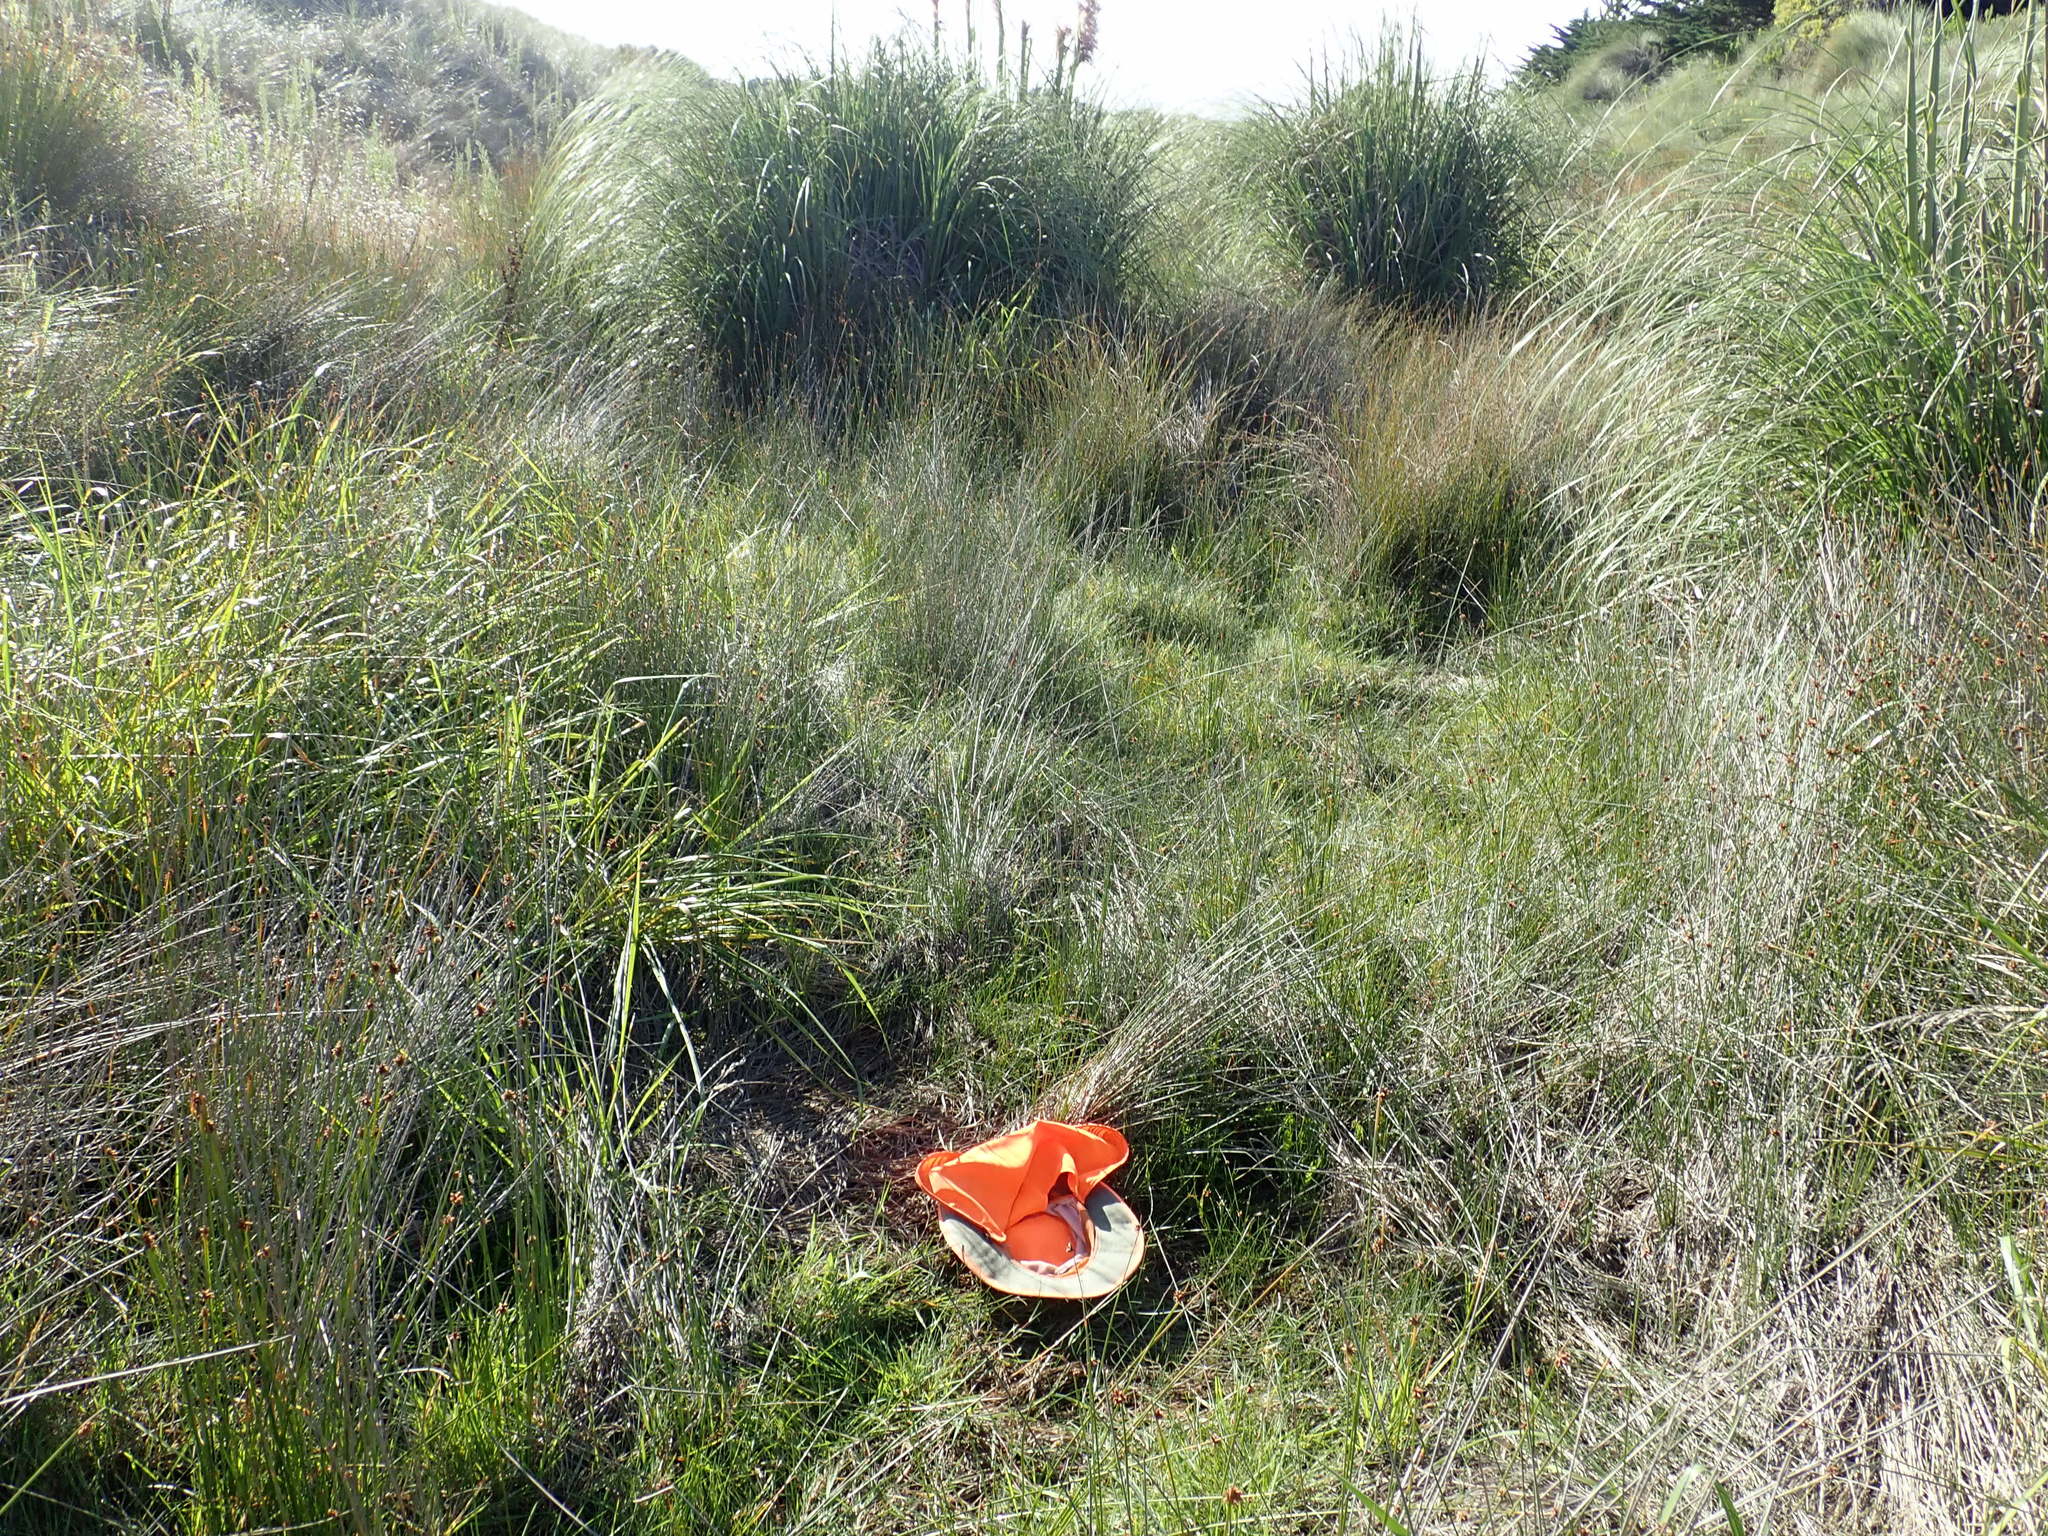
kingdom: Plantae
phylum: Tracheophyta
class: Liliopsida
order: Alismatales
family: Juncaginaceae
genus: Triglochin
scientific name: Triglochin striata
